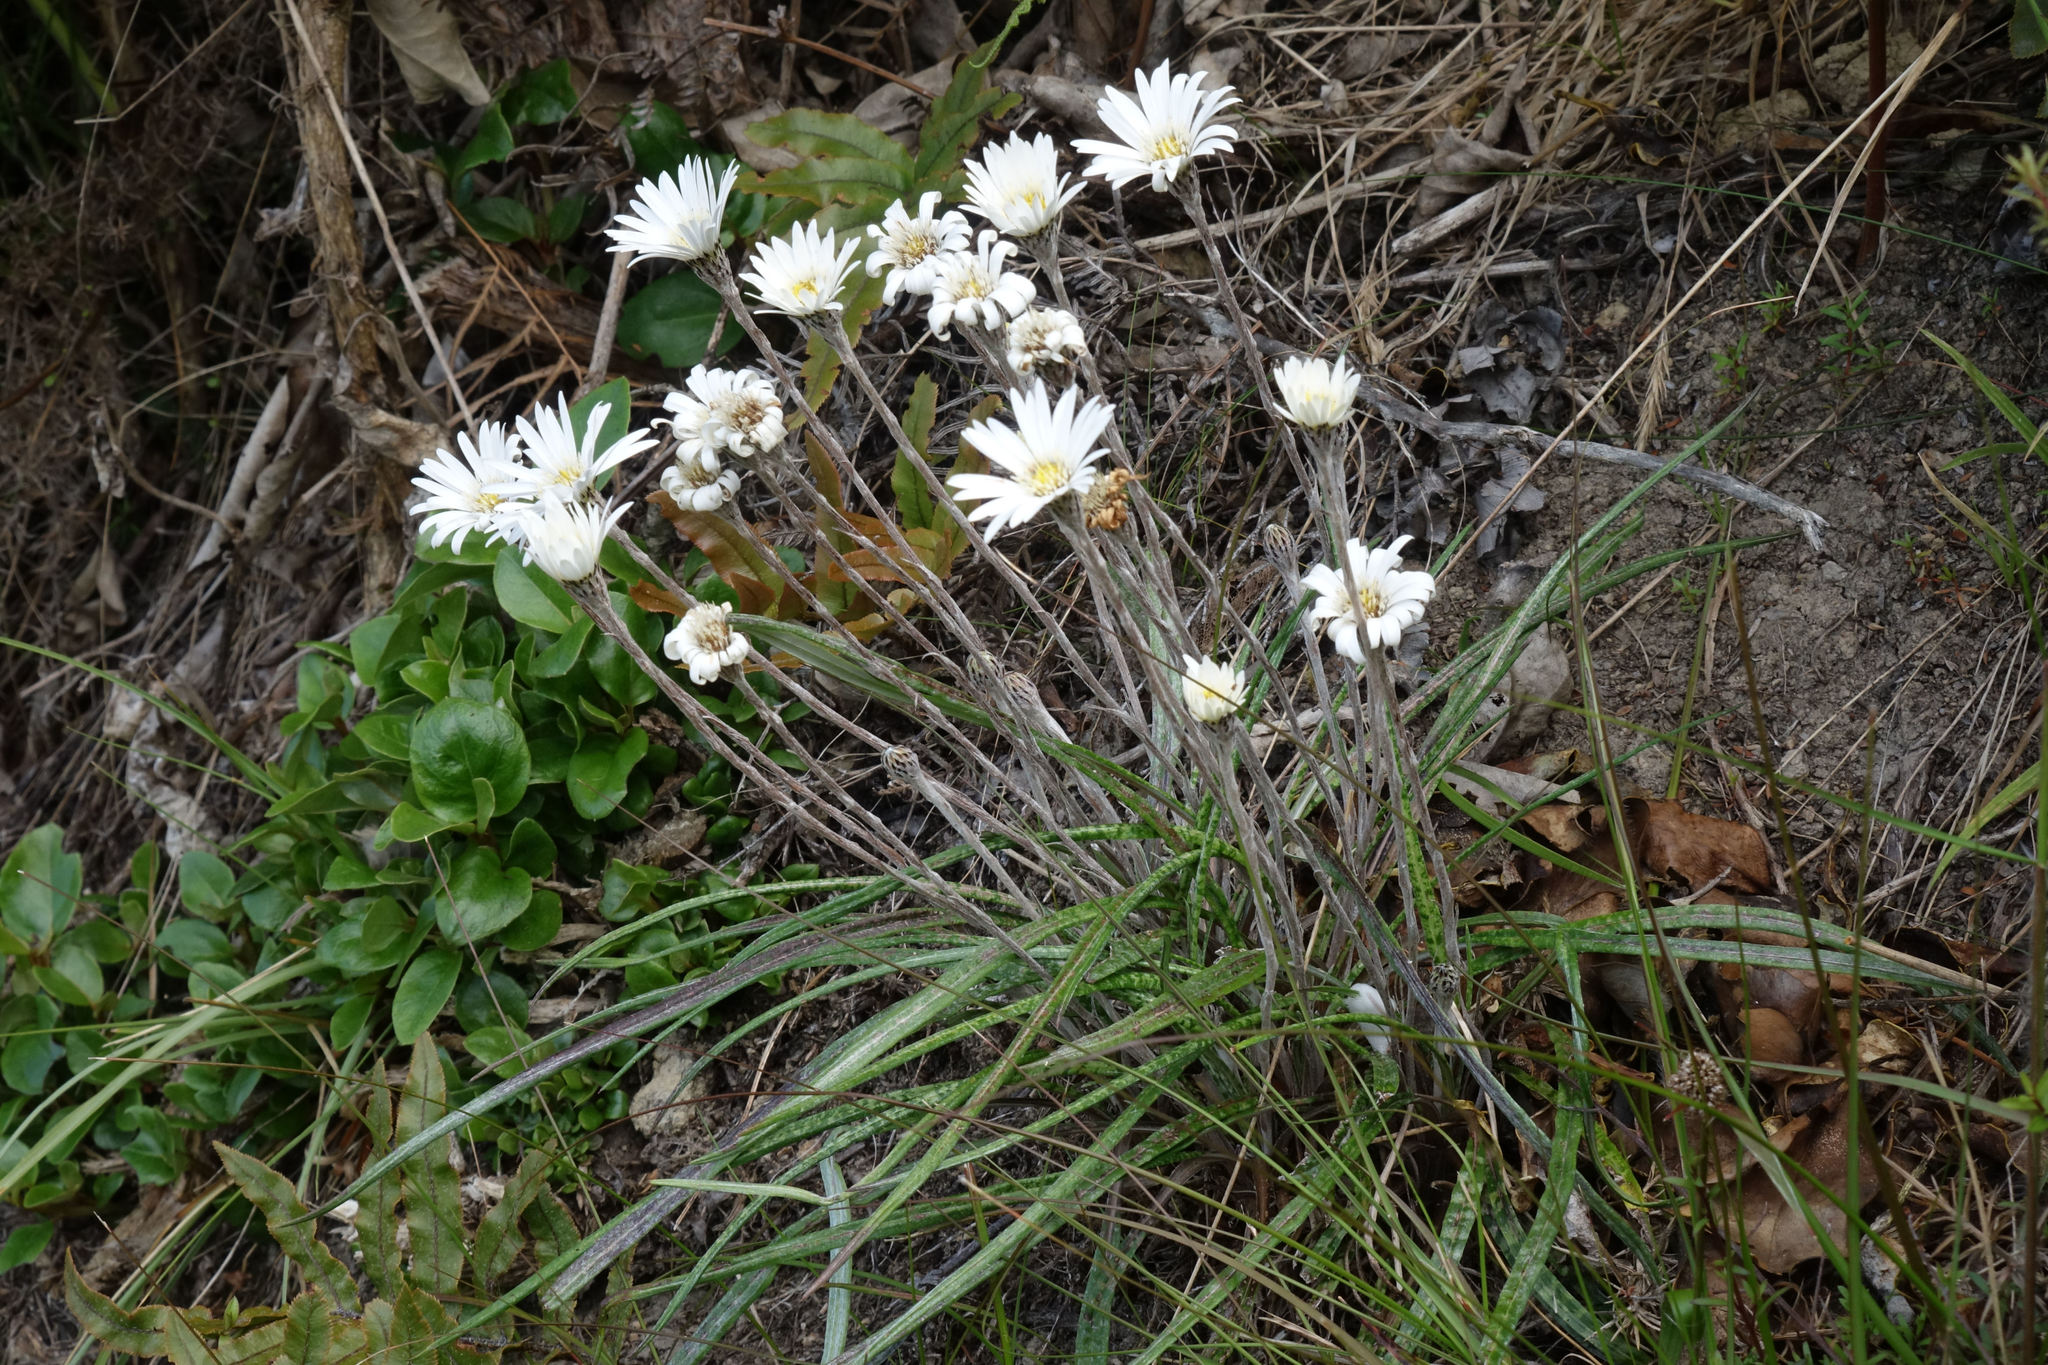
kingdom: Plantae
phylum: Tracheophyta
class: Magnoliopsida
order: Asterales
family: Asteraceae
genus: Celmisia
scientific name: Celmisia gracilenta
